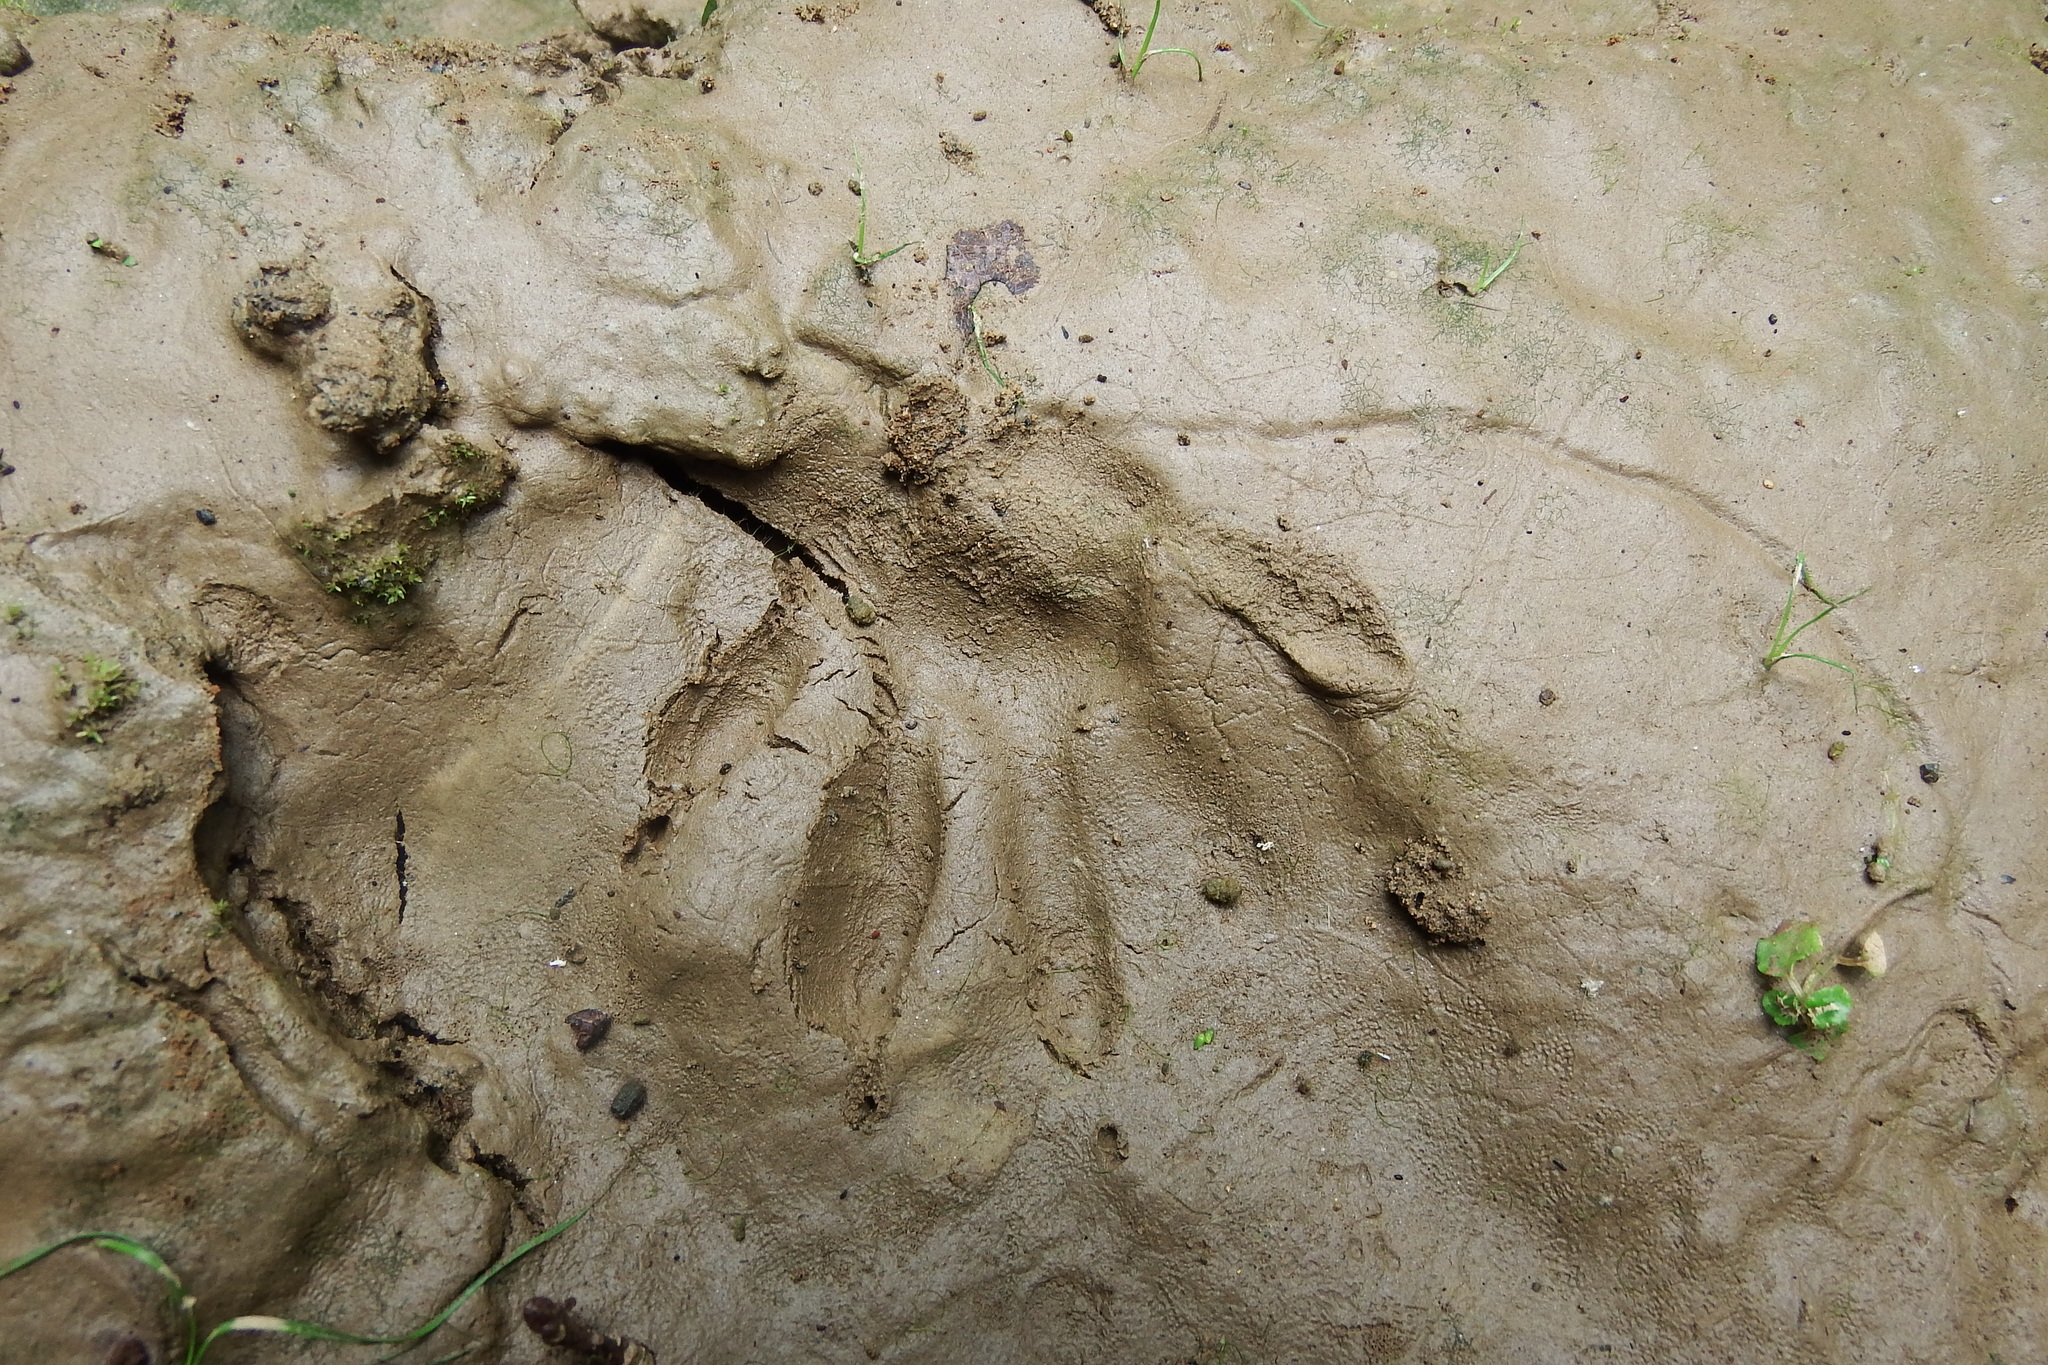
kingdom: Animalia
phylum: Chordata
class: Mammalia
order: Carnivora
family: Procyonidae
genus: Procyon
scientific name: Procyon lotor
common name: Raccoon
